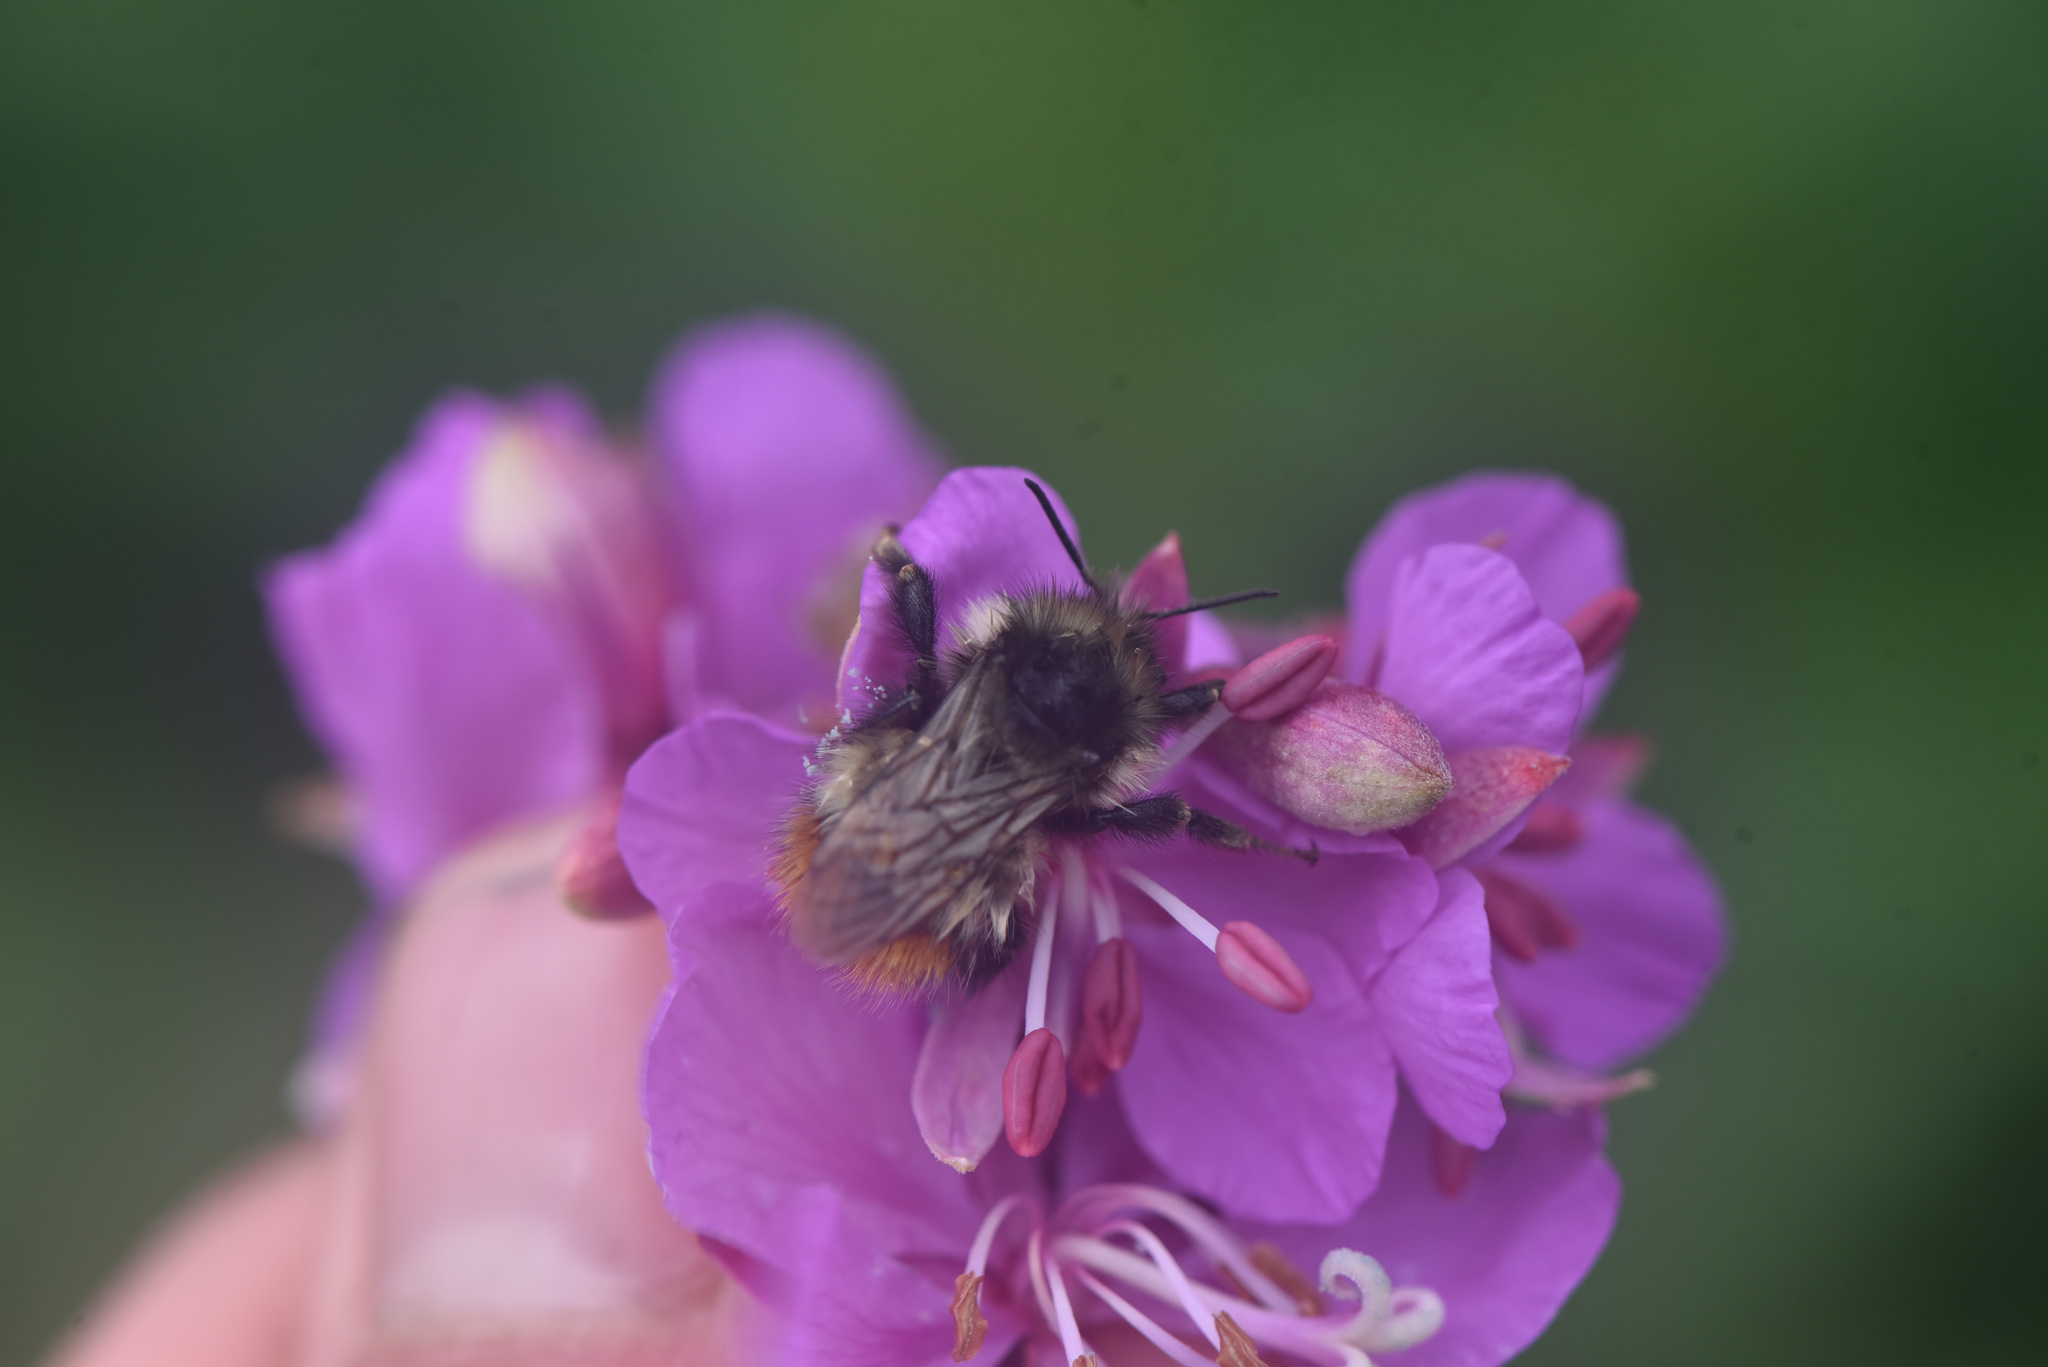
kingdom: Animalia
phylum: Arthropoda
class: Insecta
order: Hymenoptera
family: Apidae
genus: Bombus
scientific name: Bombus flavifrons
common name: Yellow head bumble bee
